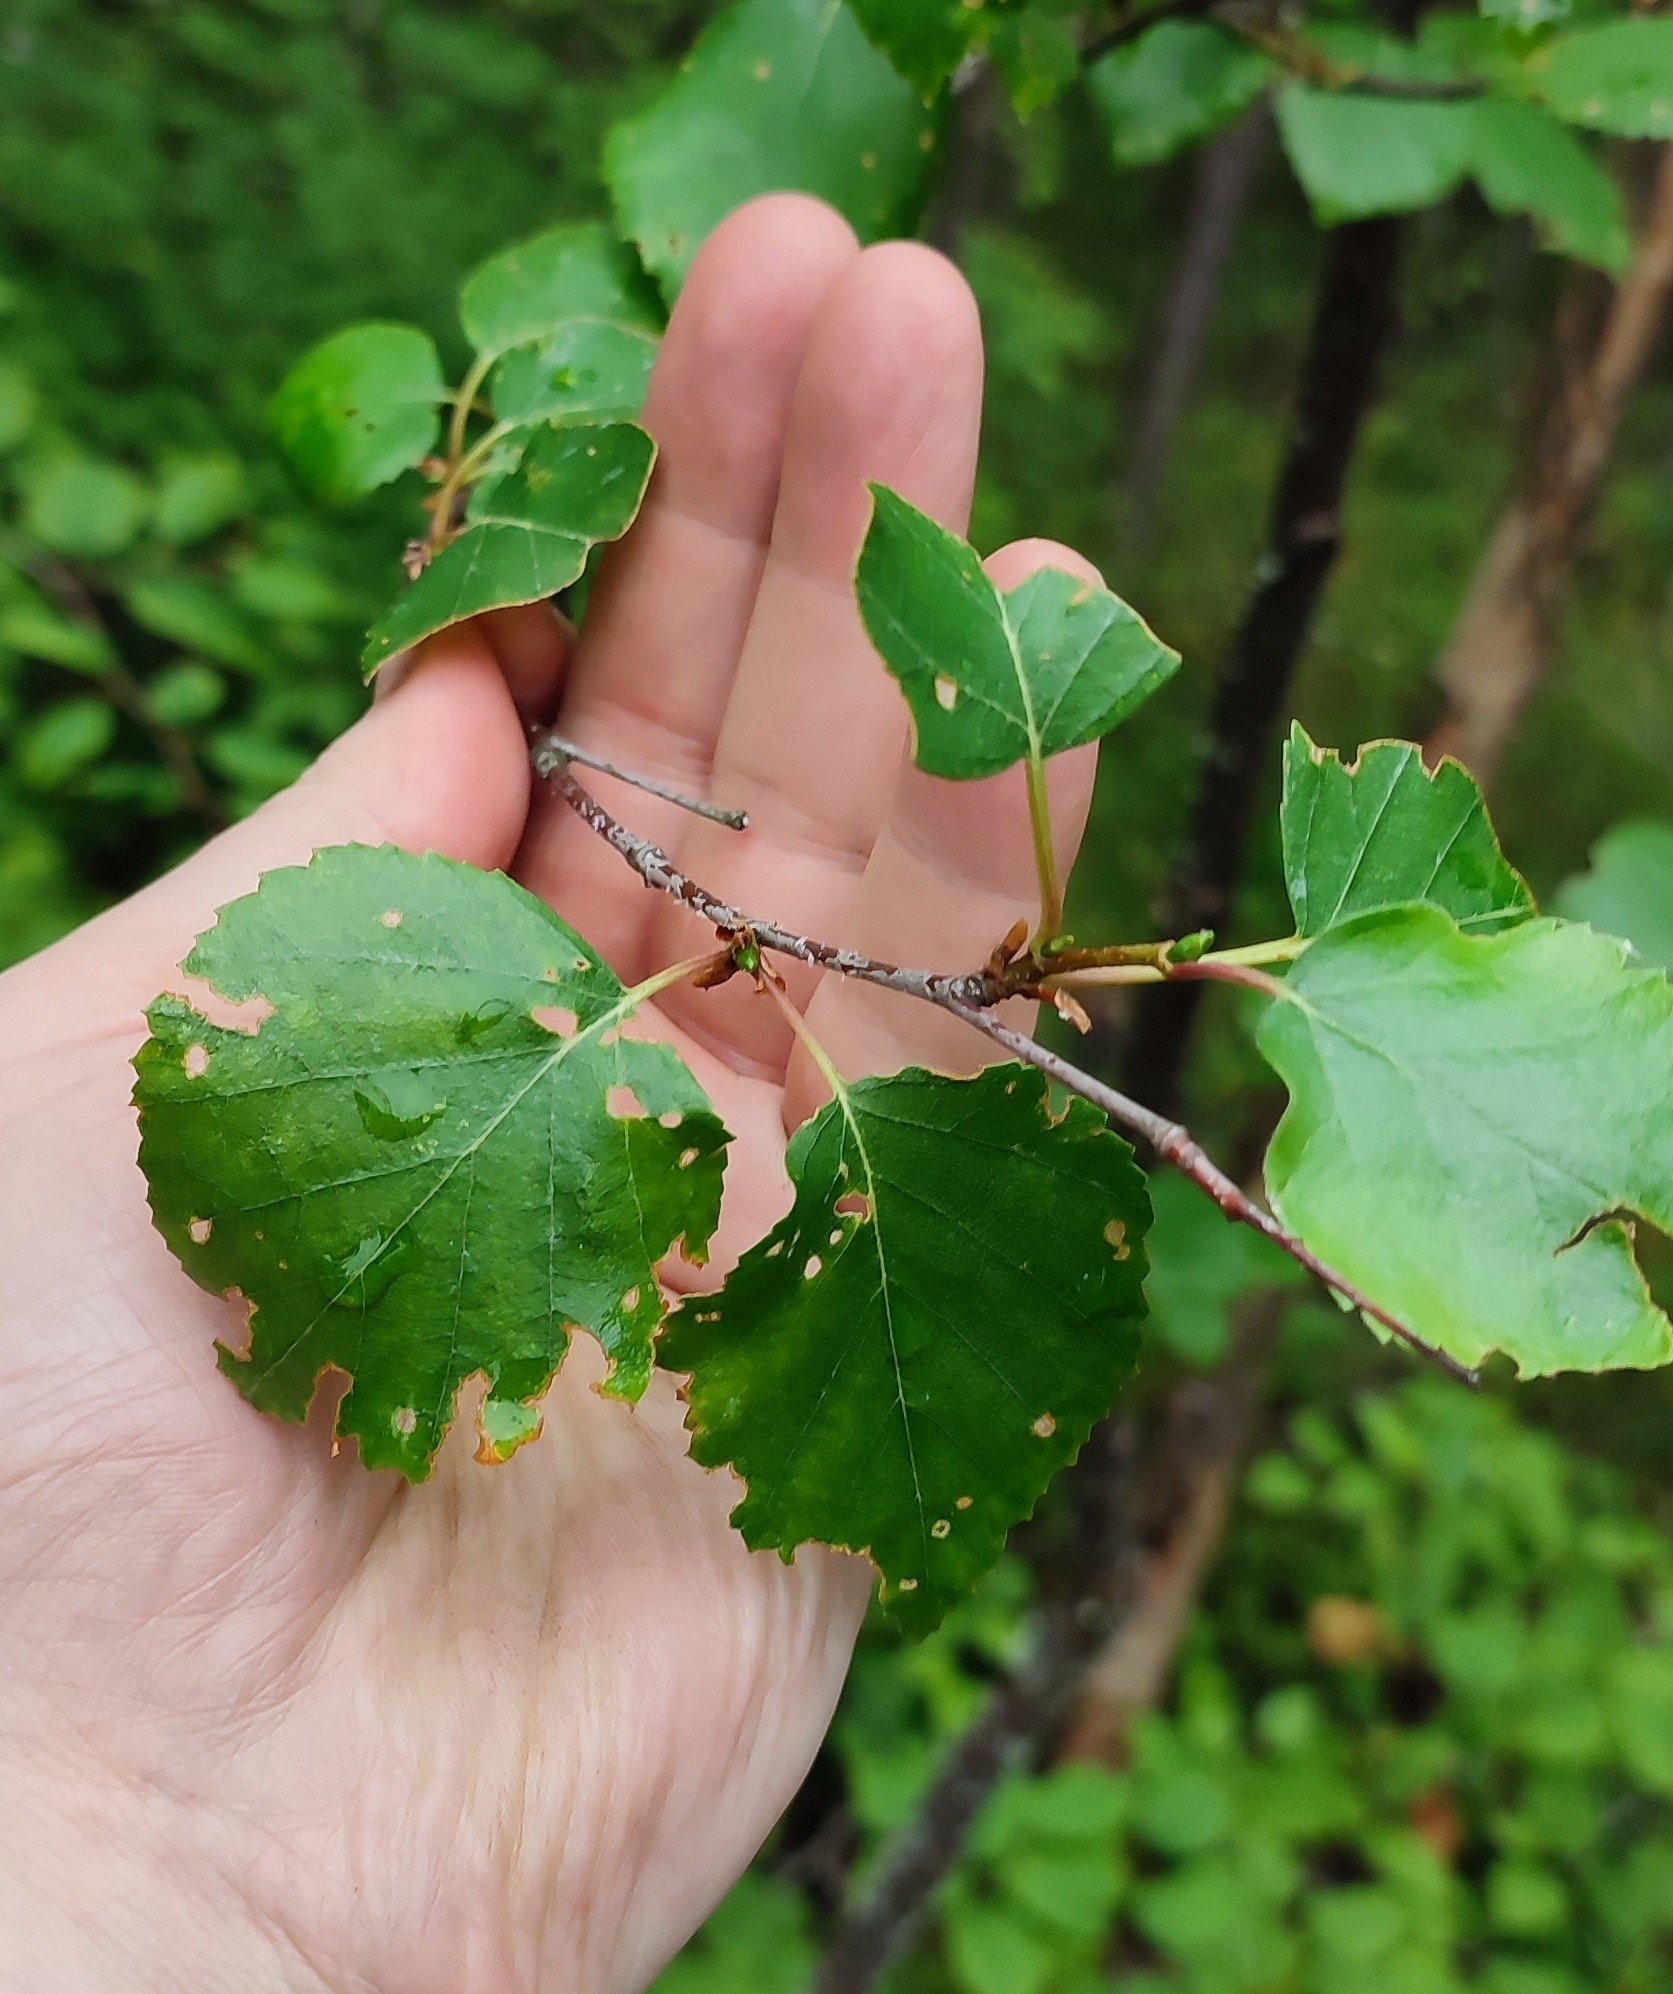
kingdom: Plantae
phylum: Tracheophyta
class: Magnoliopsida
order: Fagales
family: Betulaceae
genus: Betula
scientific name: Betula pubescens
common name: Downy birch
